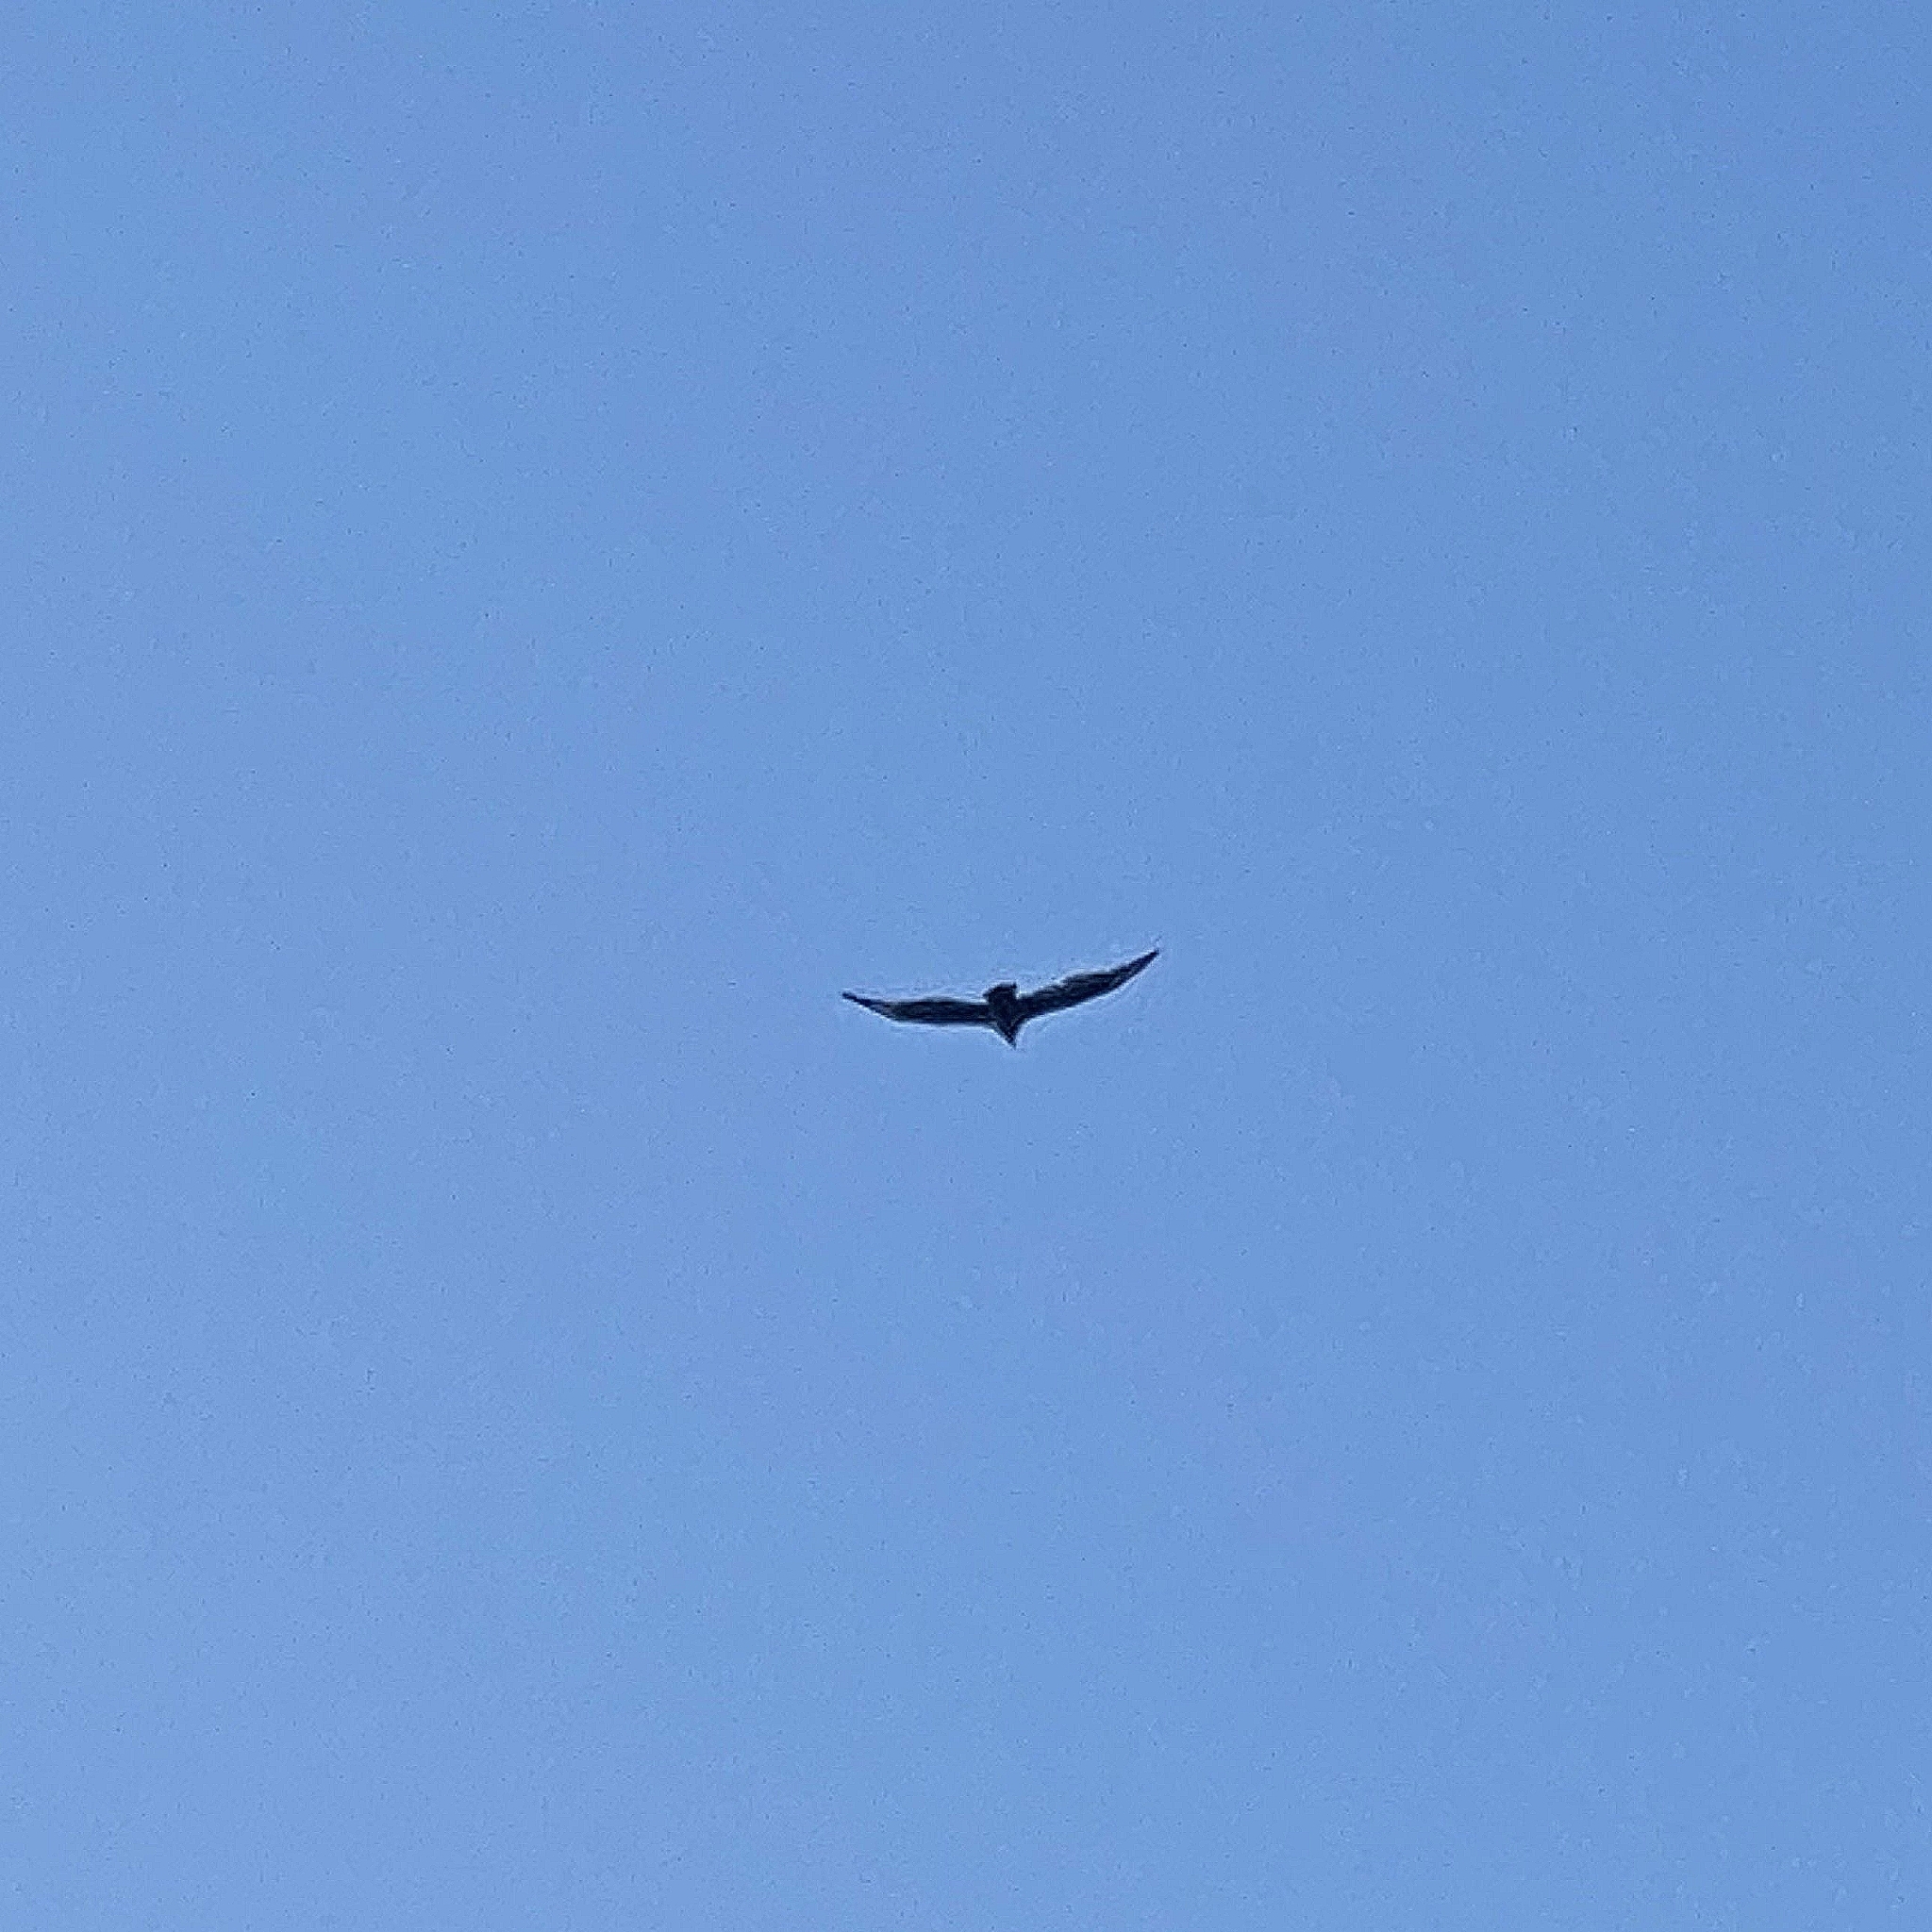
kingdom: Animalia
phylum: Chordata
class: Aves
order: Accipitriformes
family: Cathartidae
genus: Cathartes
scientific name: Cathartes aura
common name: Turkey vulture
